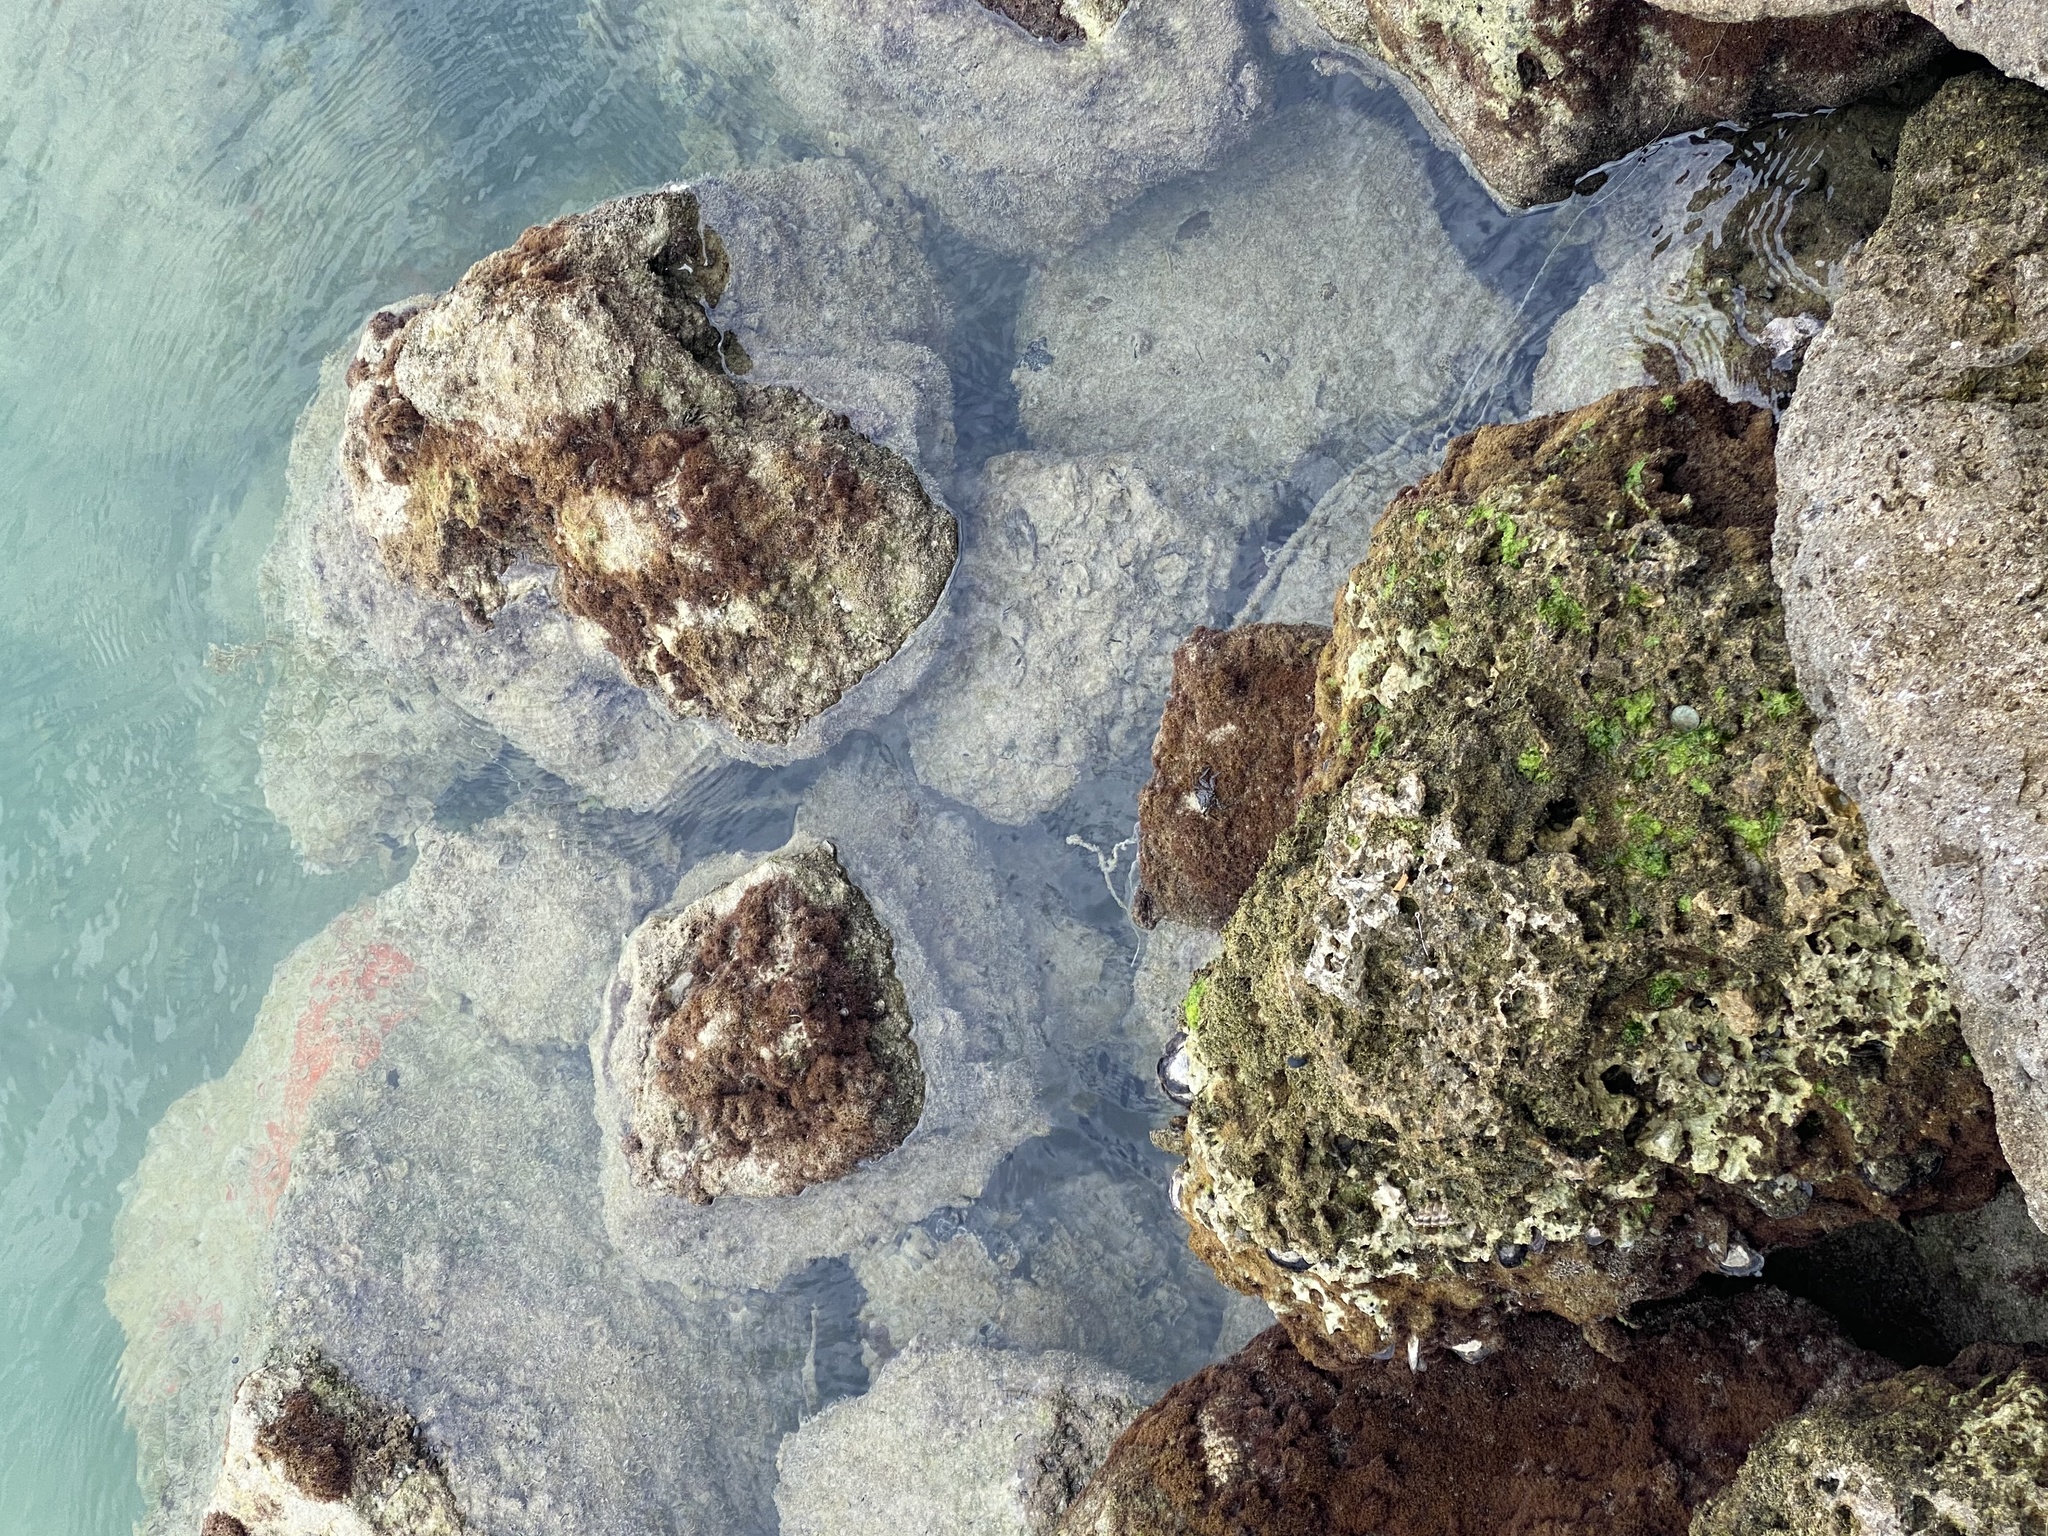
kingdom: Animalia
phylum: Arthropoda
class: Malacostraca
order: Decapoda
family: Sesarmidae
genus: Aratus
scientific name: Aratus pisonii
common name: Mangrove crab
